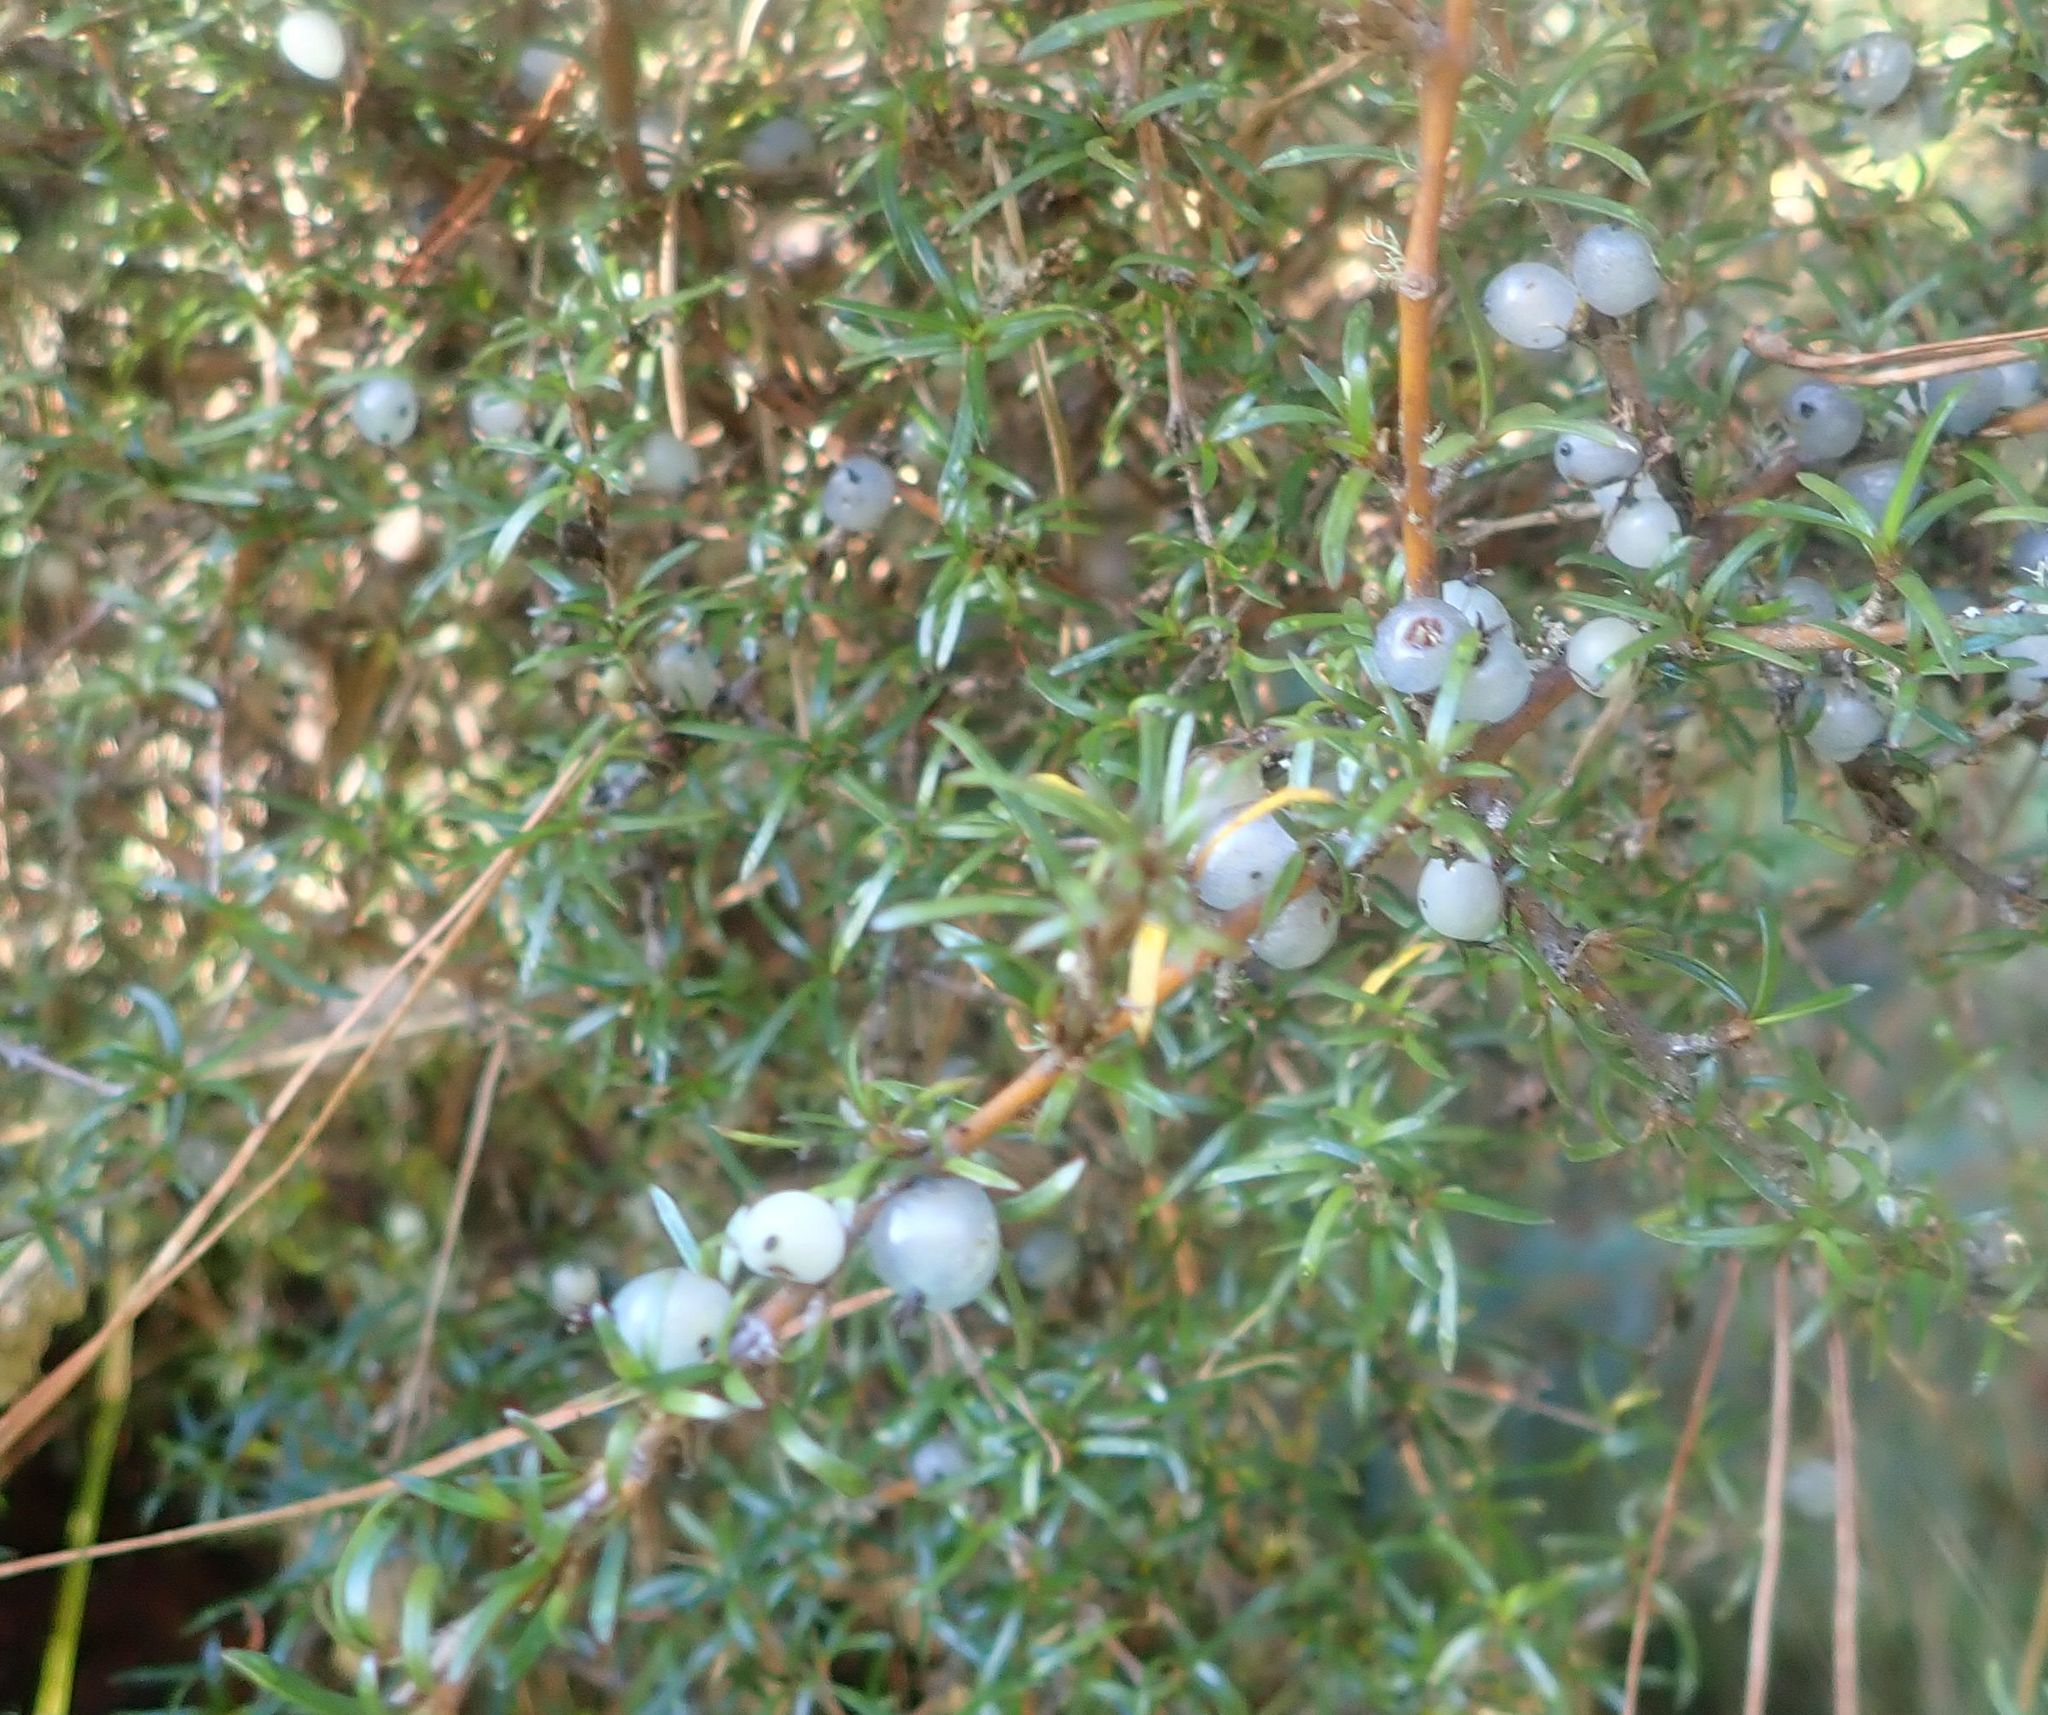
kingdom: Plantae
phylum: Tracheophyta
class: Magnoliopsida
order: Gentianales
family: Rubiaceae
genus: Coprosma
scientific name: Coprosma rugosa
